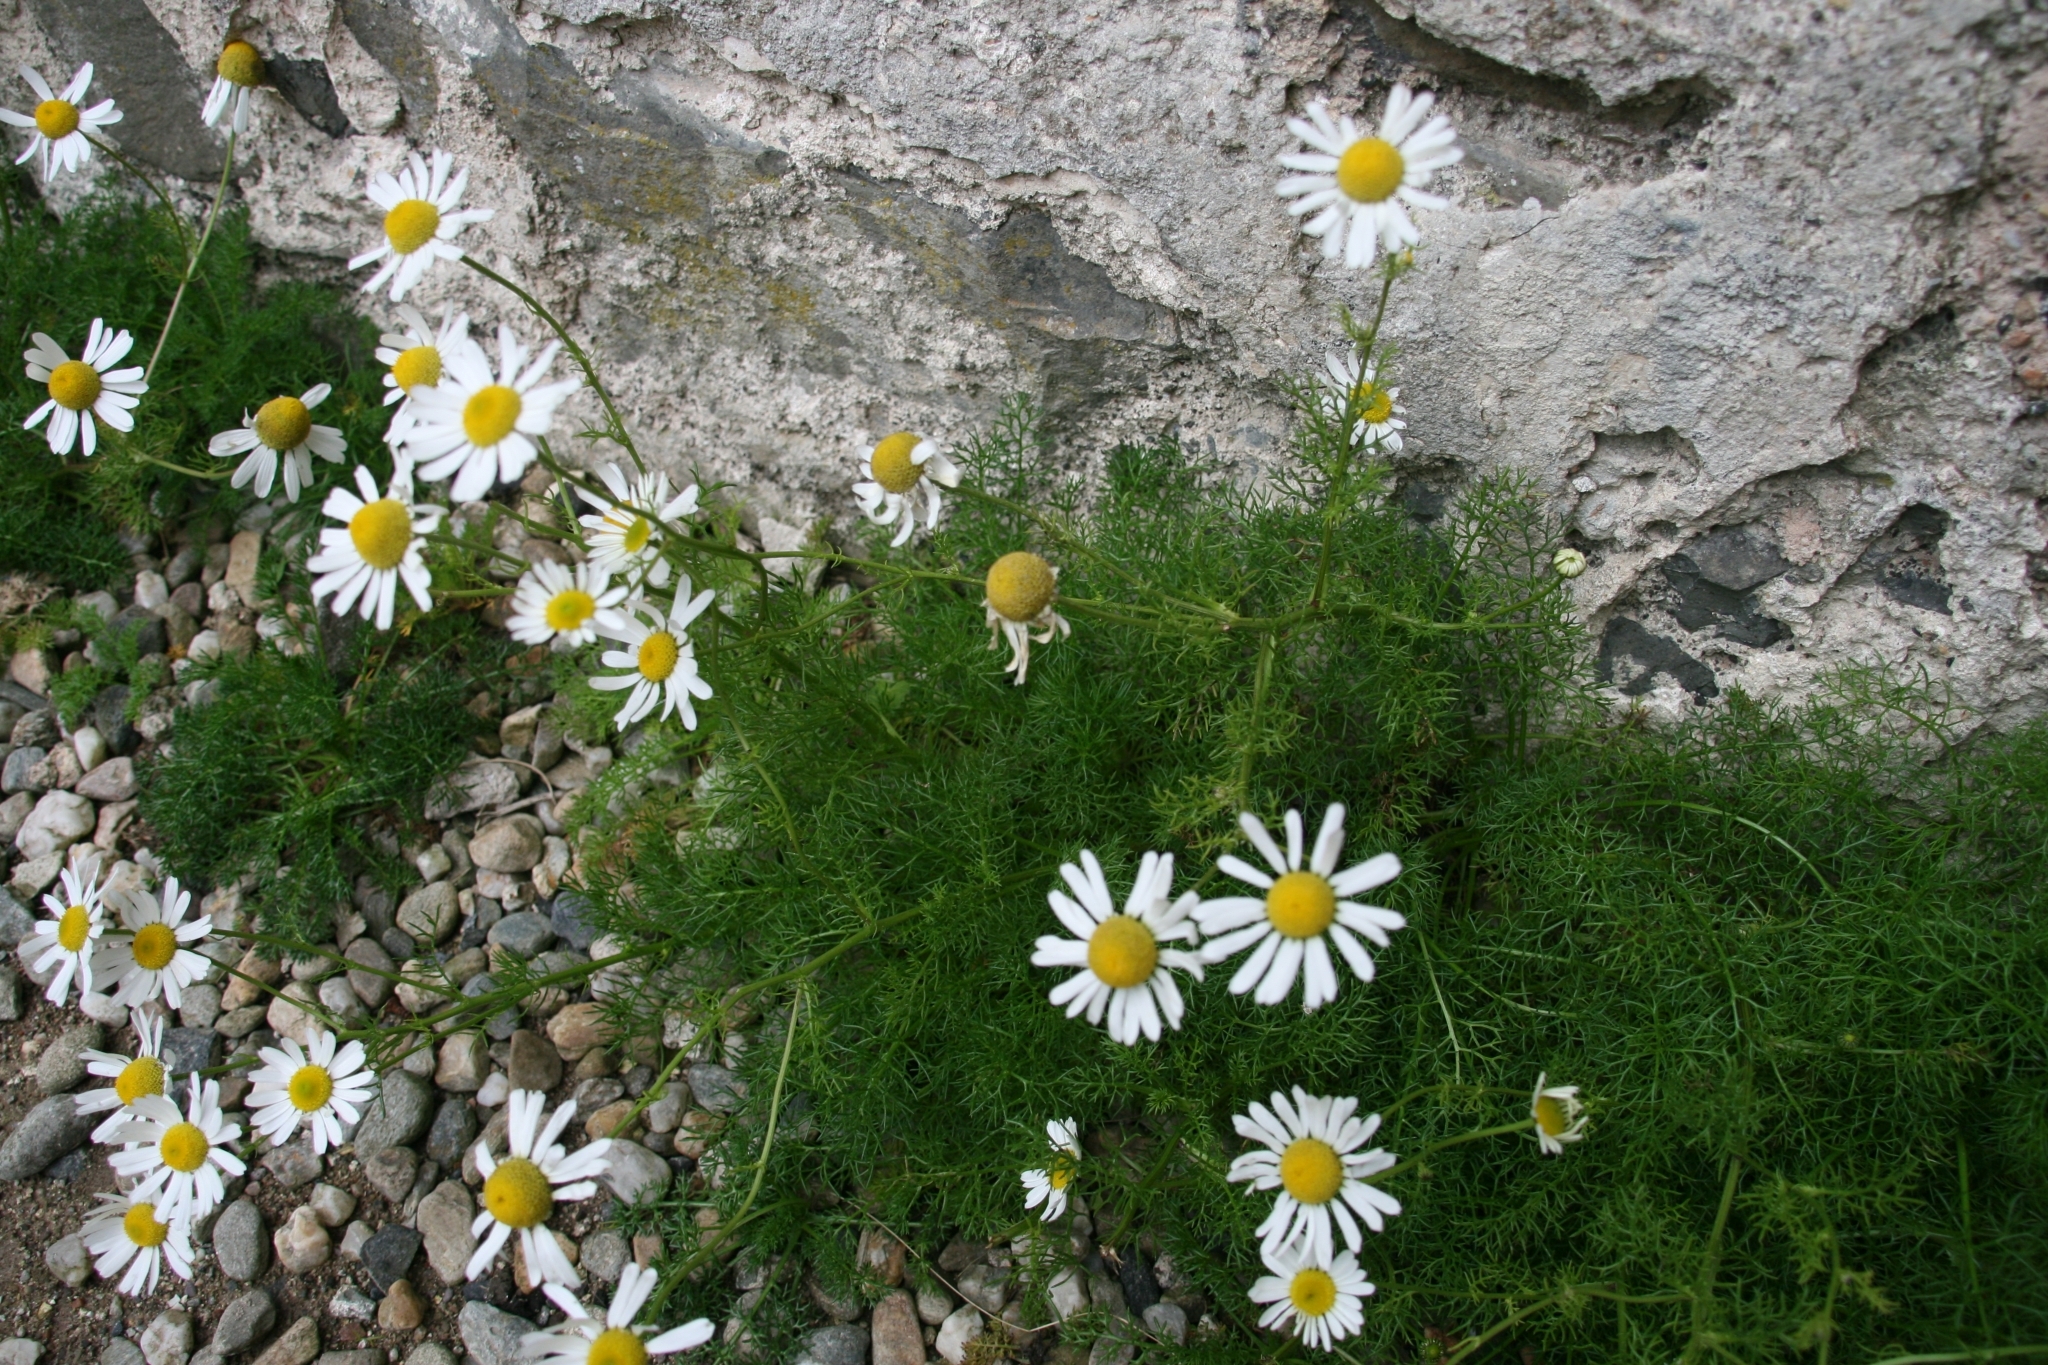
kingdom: Plantae
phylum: Tracheophyta
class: Magnoliopsida
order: Asterales
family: Asteraceae
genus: Tripleurospermum
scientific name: Tripleurospermum inodorum
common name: Scentless mayweed
